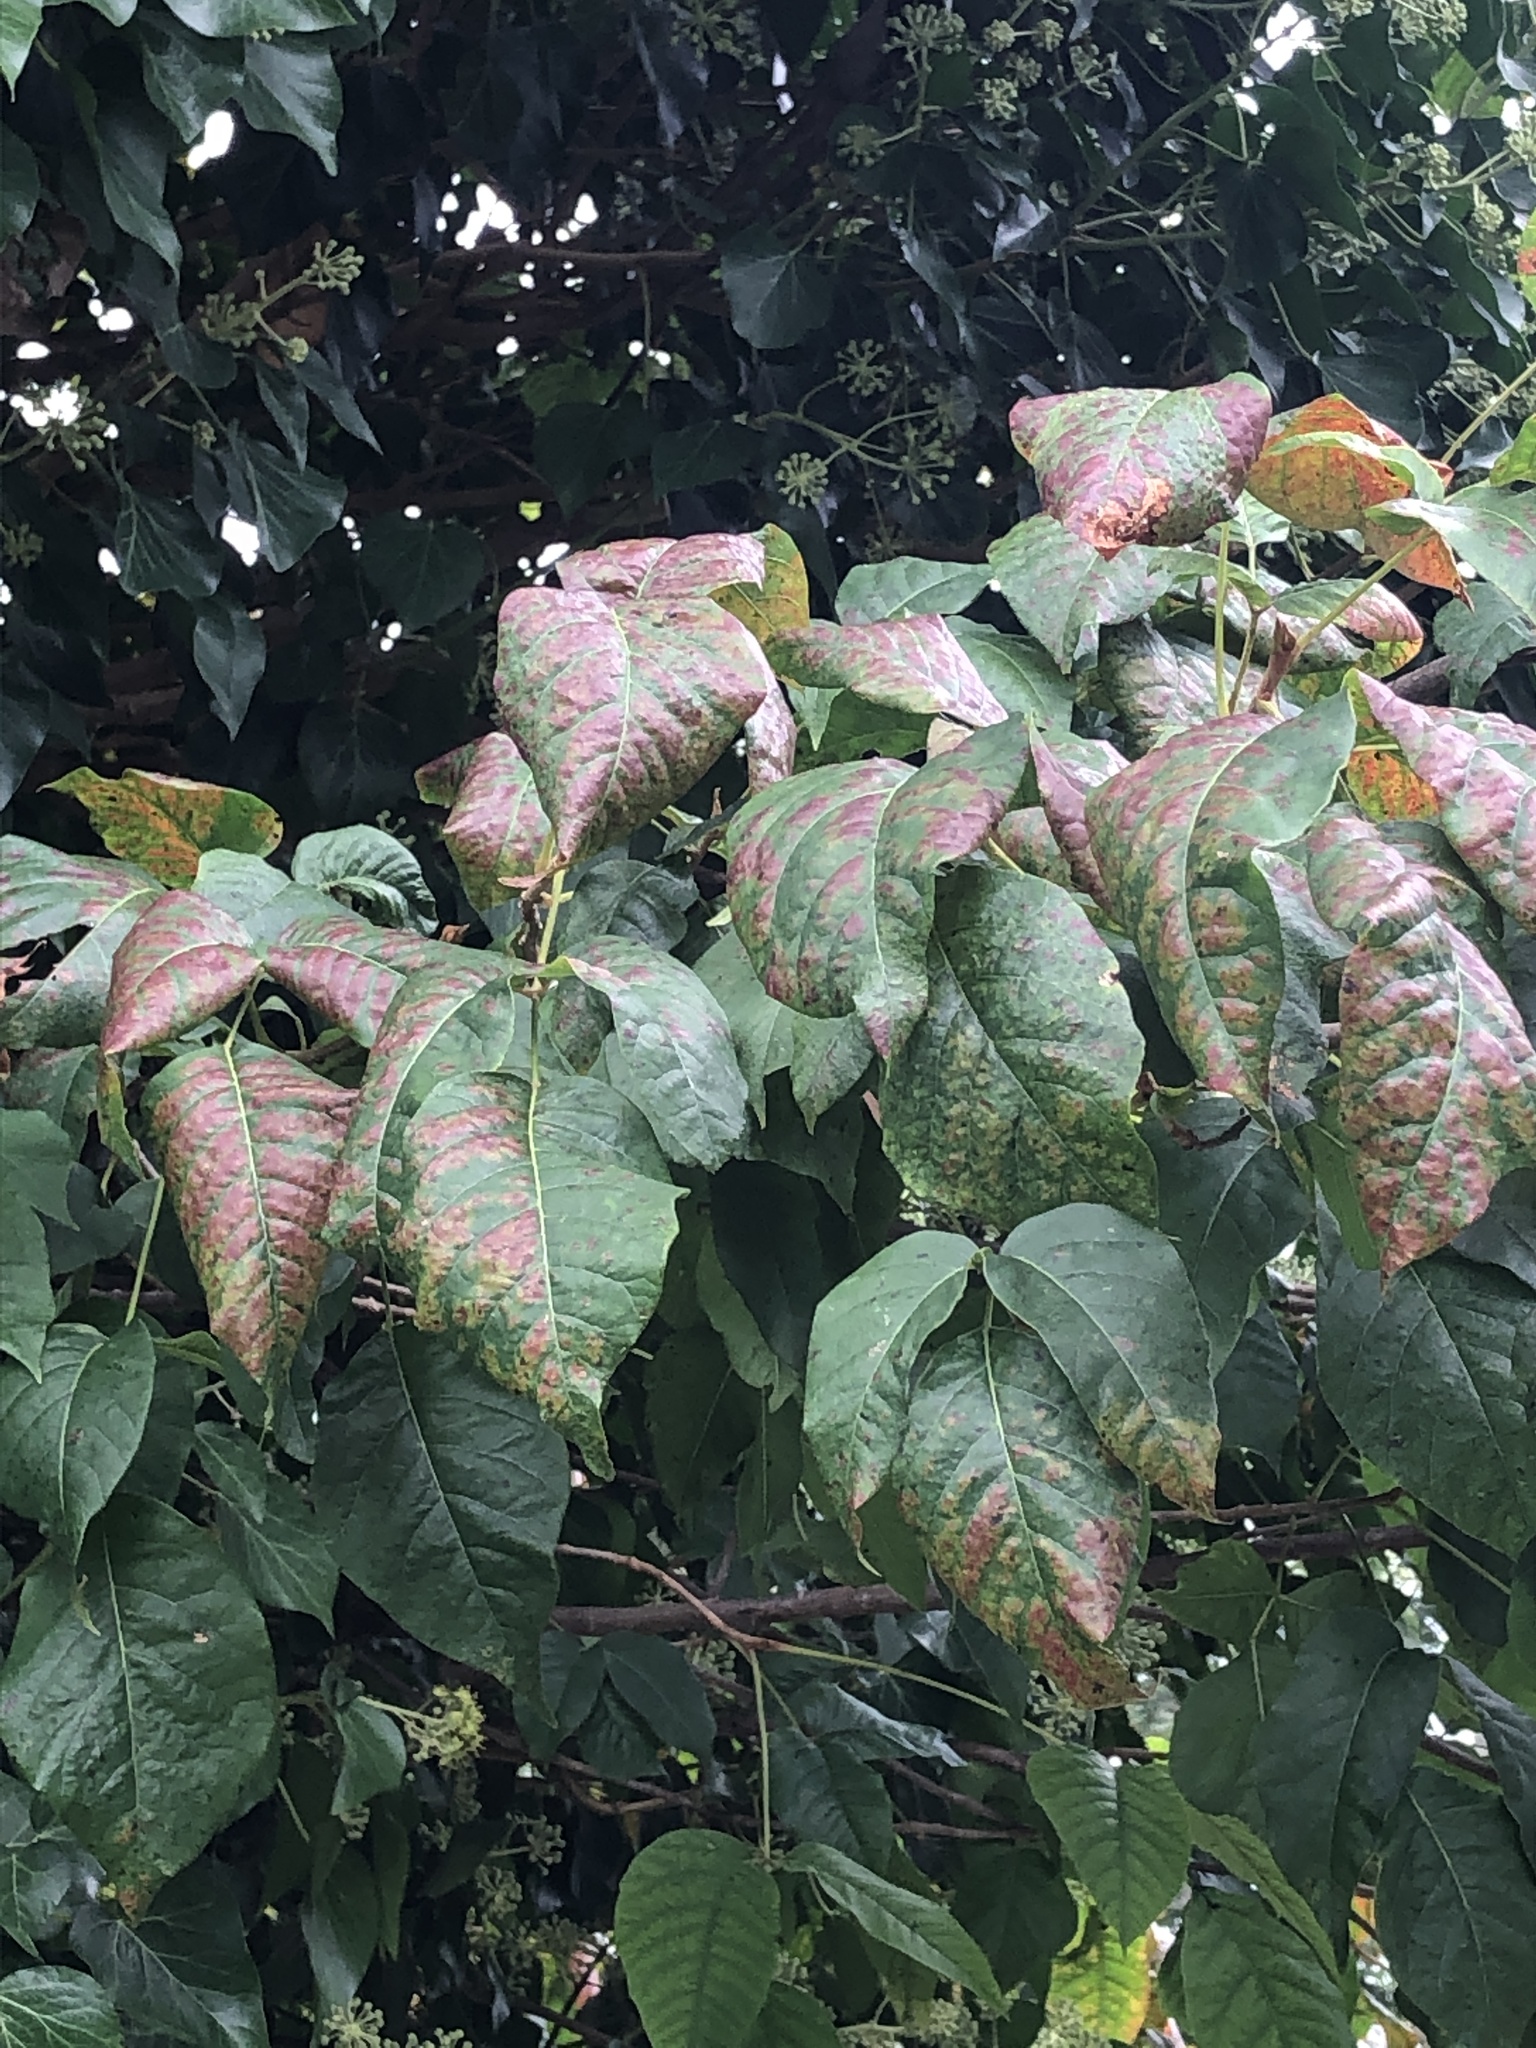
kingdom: Plantae
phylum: Tracheophyta
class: Magnoliopsida
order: Sapindales
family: Anacardiaceae
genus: Toxicodendron
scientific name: Toxicodendron radicans
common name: Poison ivy
